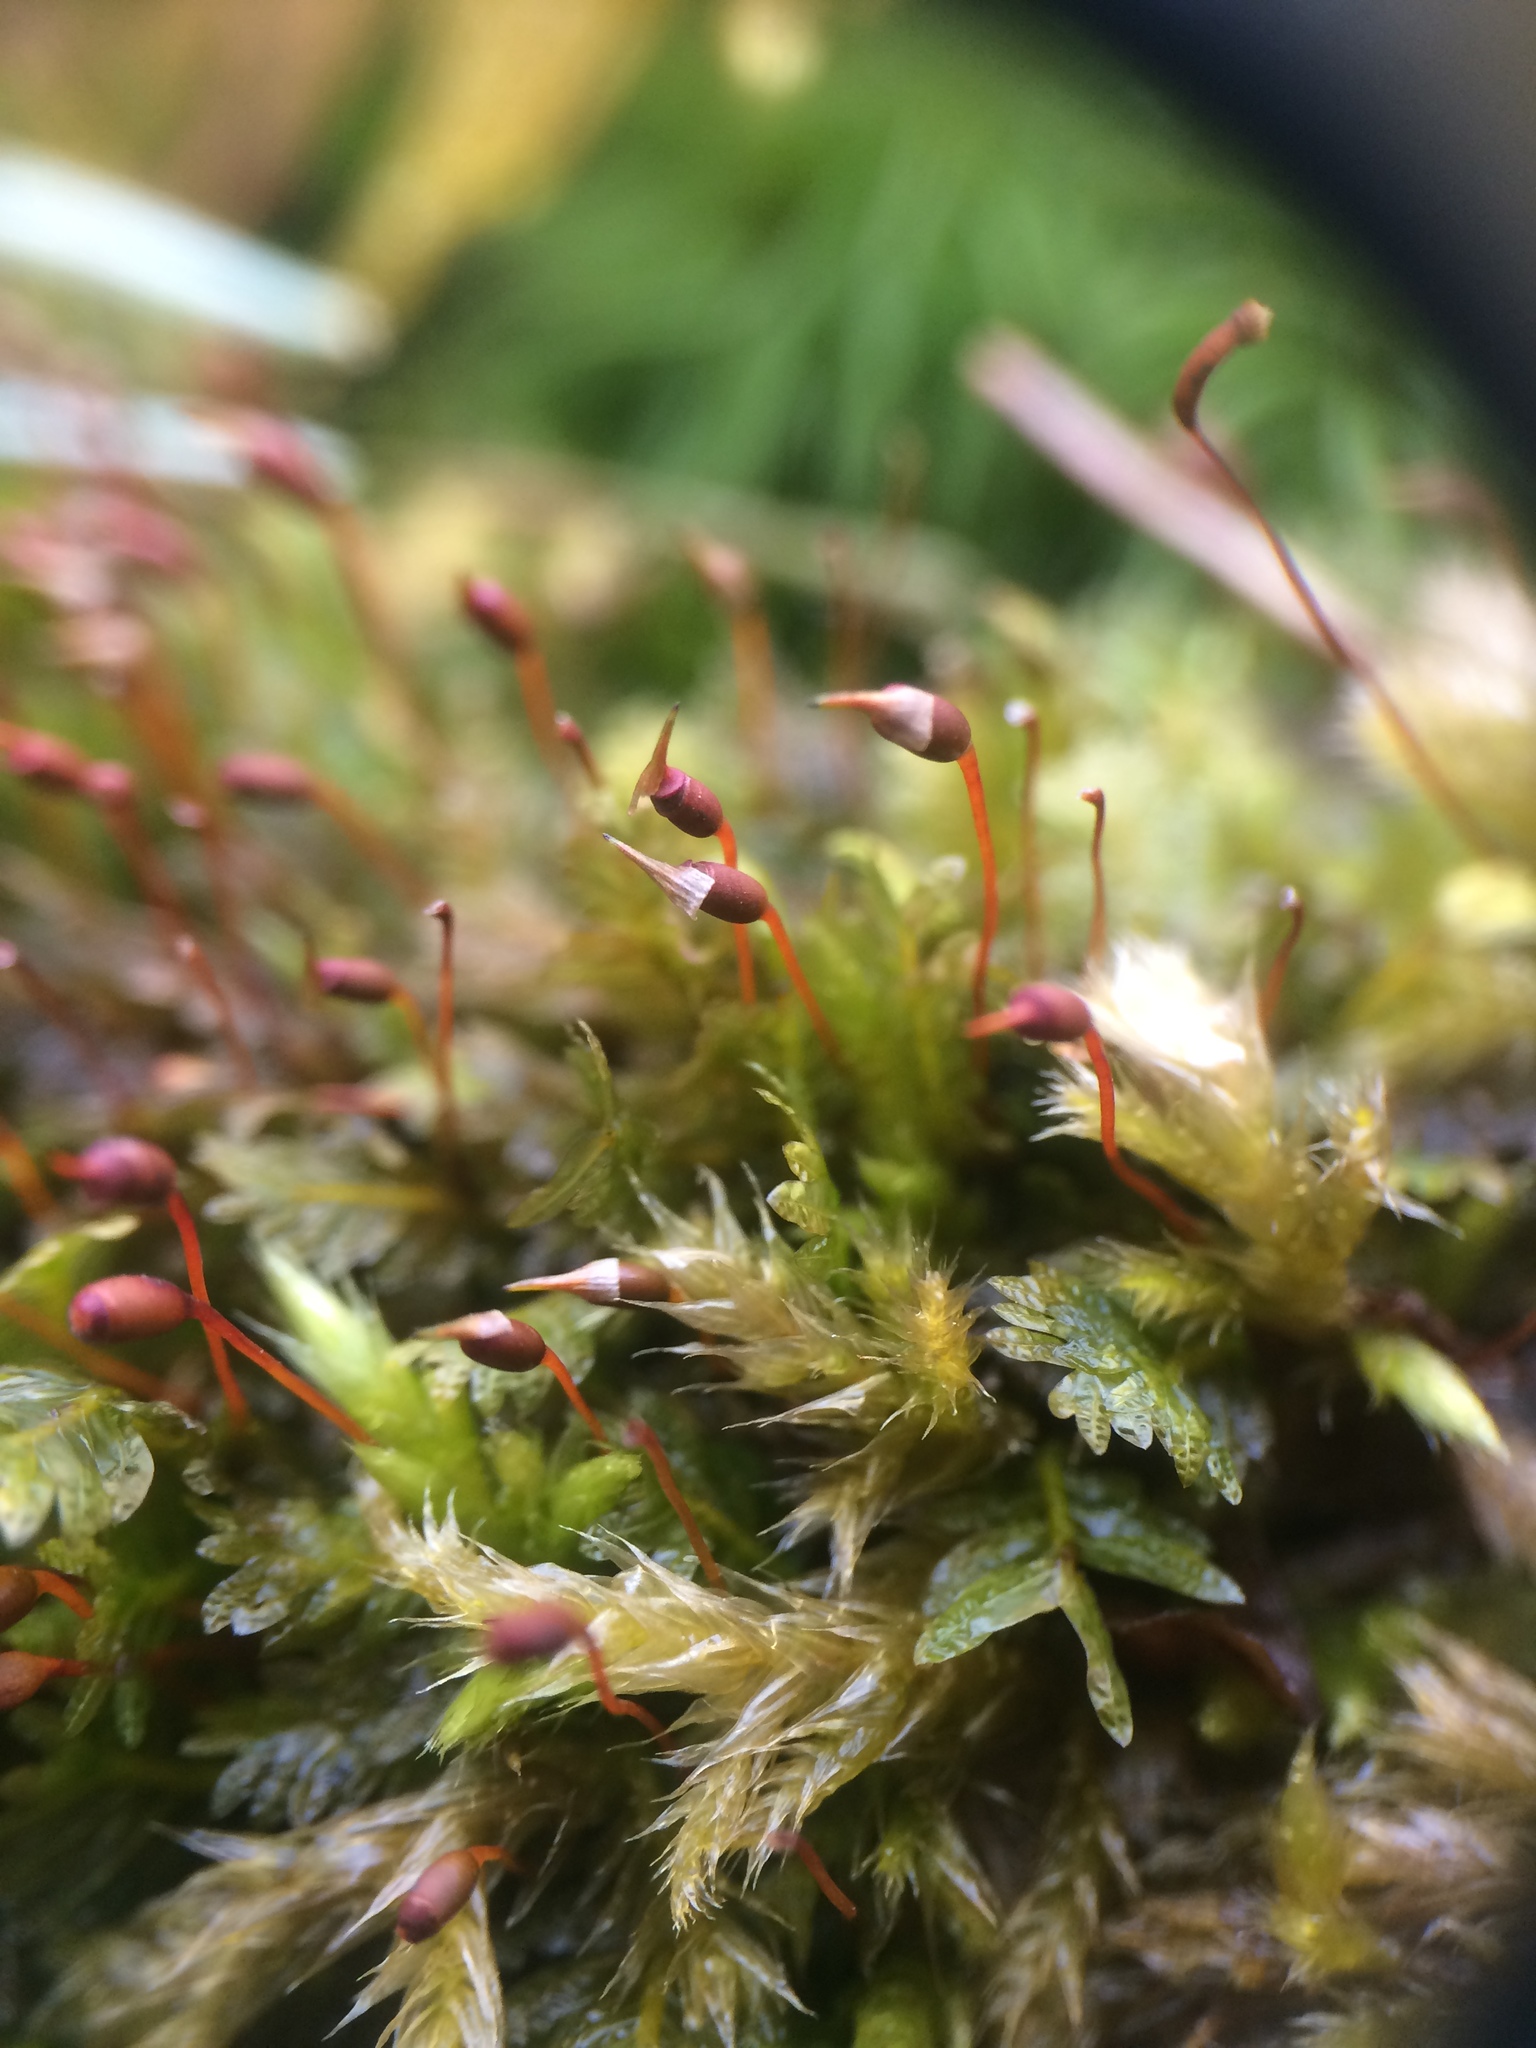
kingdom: Plantae
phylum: Bryophyta
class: Bryopsida
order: Dicranales
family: Fissidentaceae
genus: Fissidens
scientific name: Fissidens
